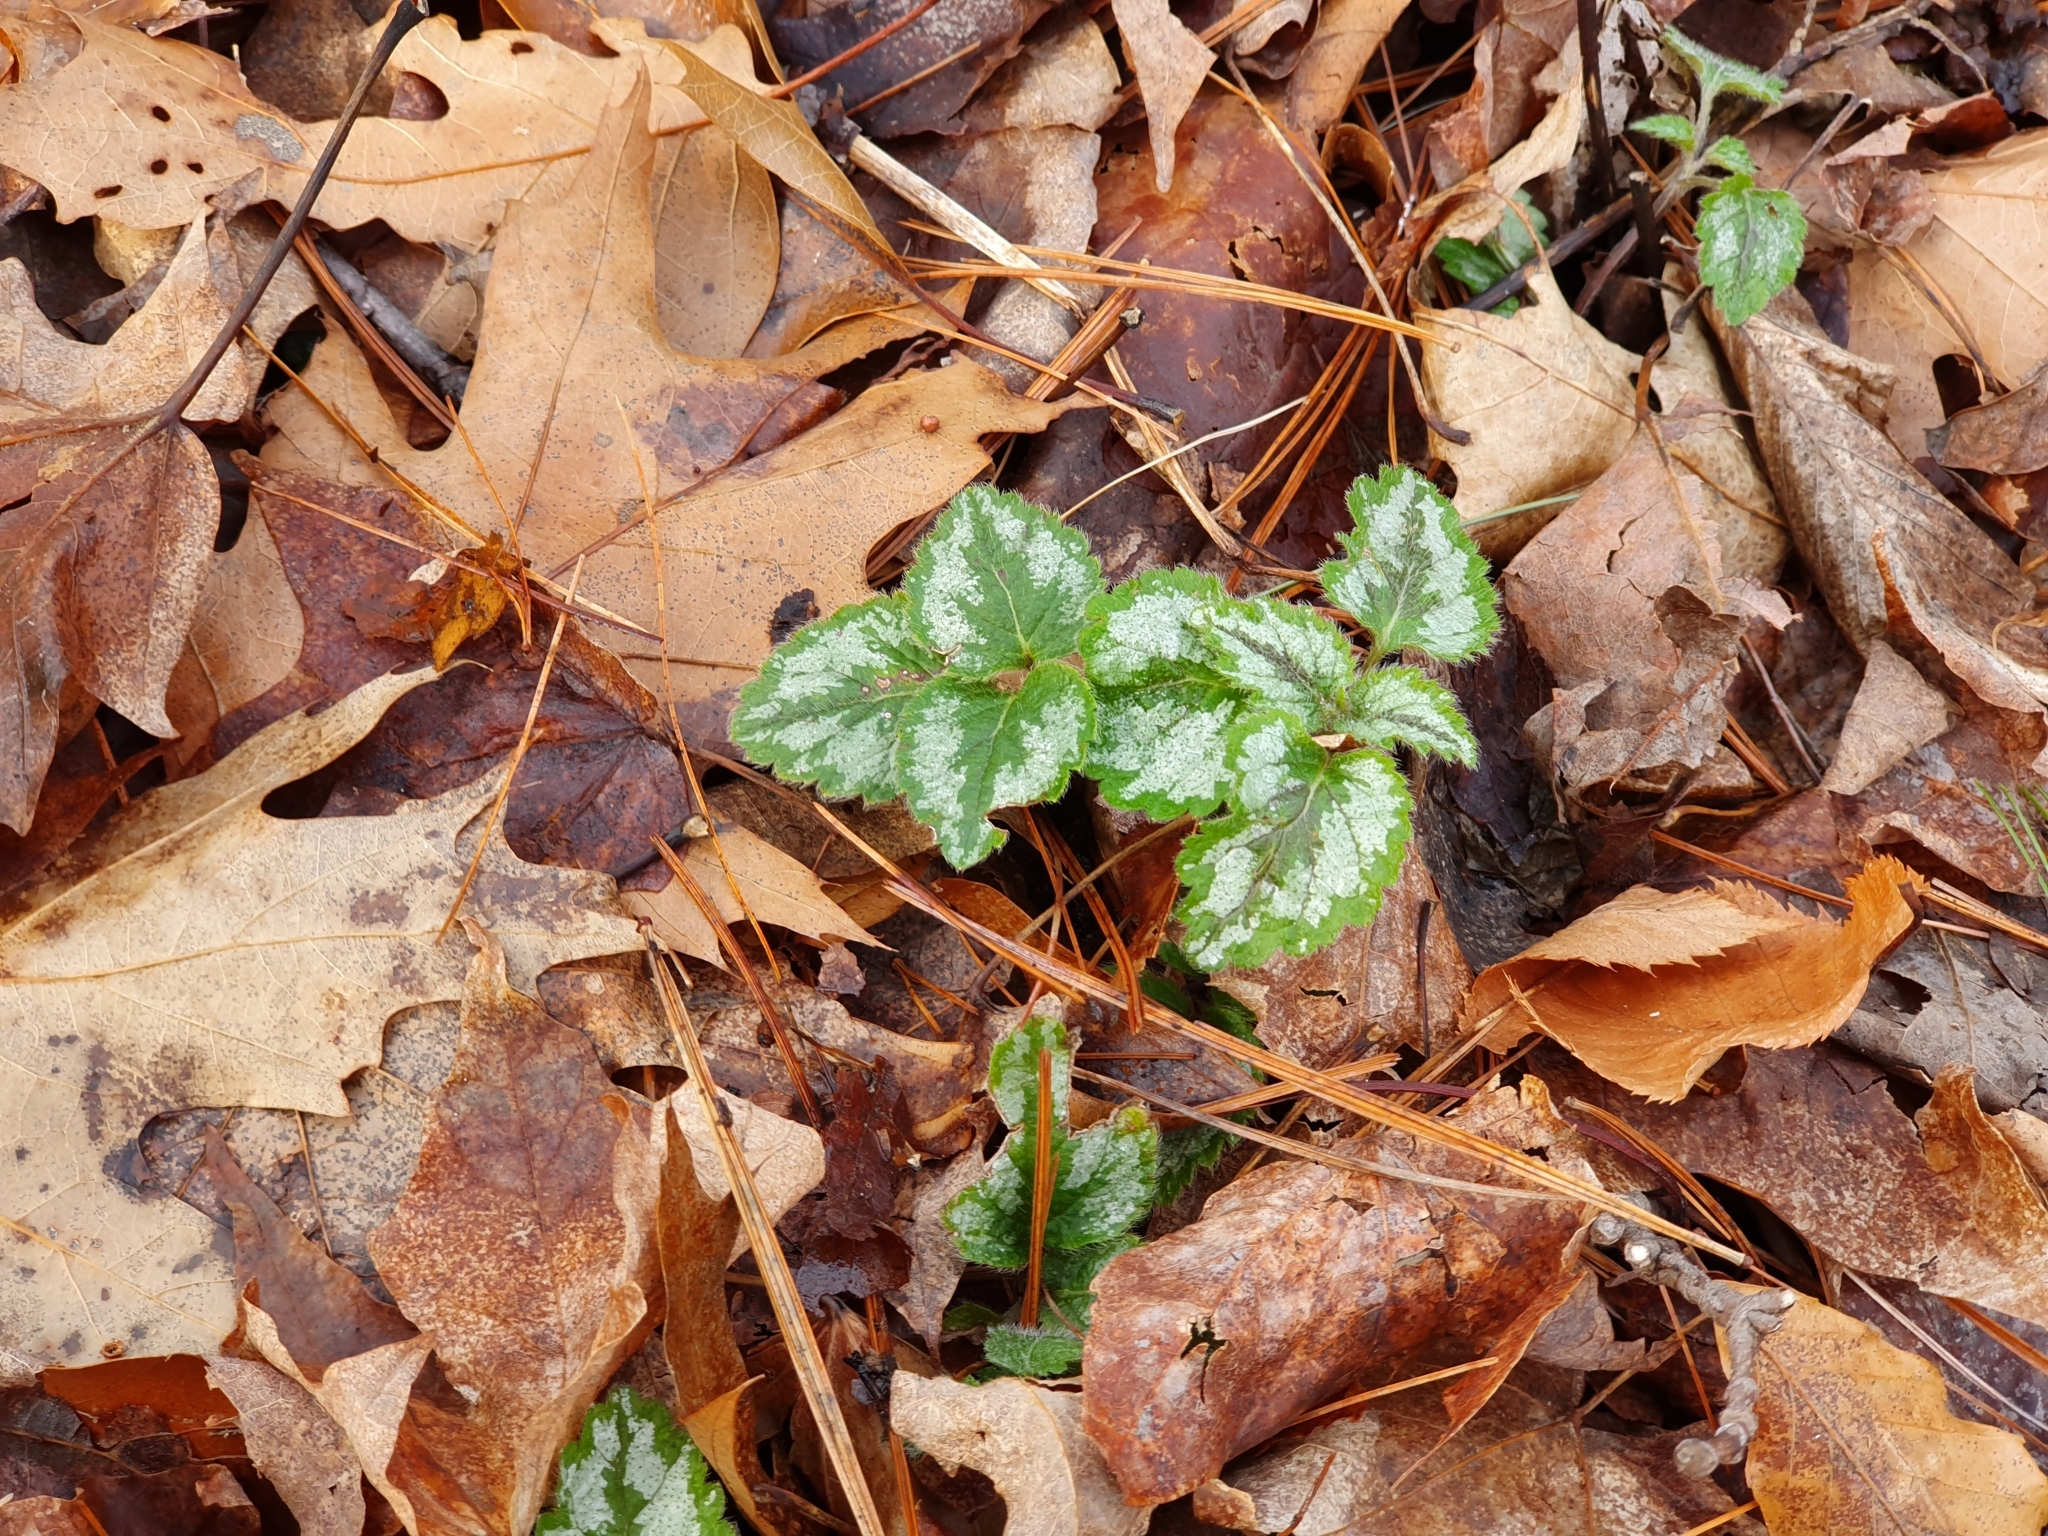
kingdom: Plantae
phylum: Tracheophyta
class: Magnoliopsida
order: Lamiales
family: Lamiaceae
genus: Lamium
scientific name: Lamium galeobdolon
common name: Yellow archangel
